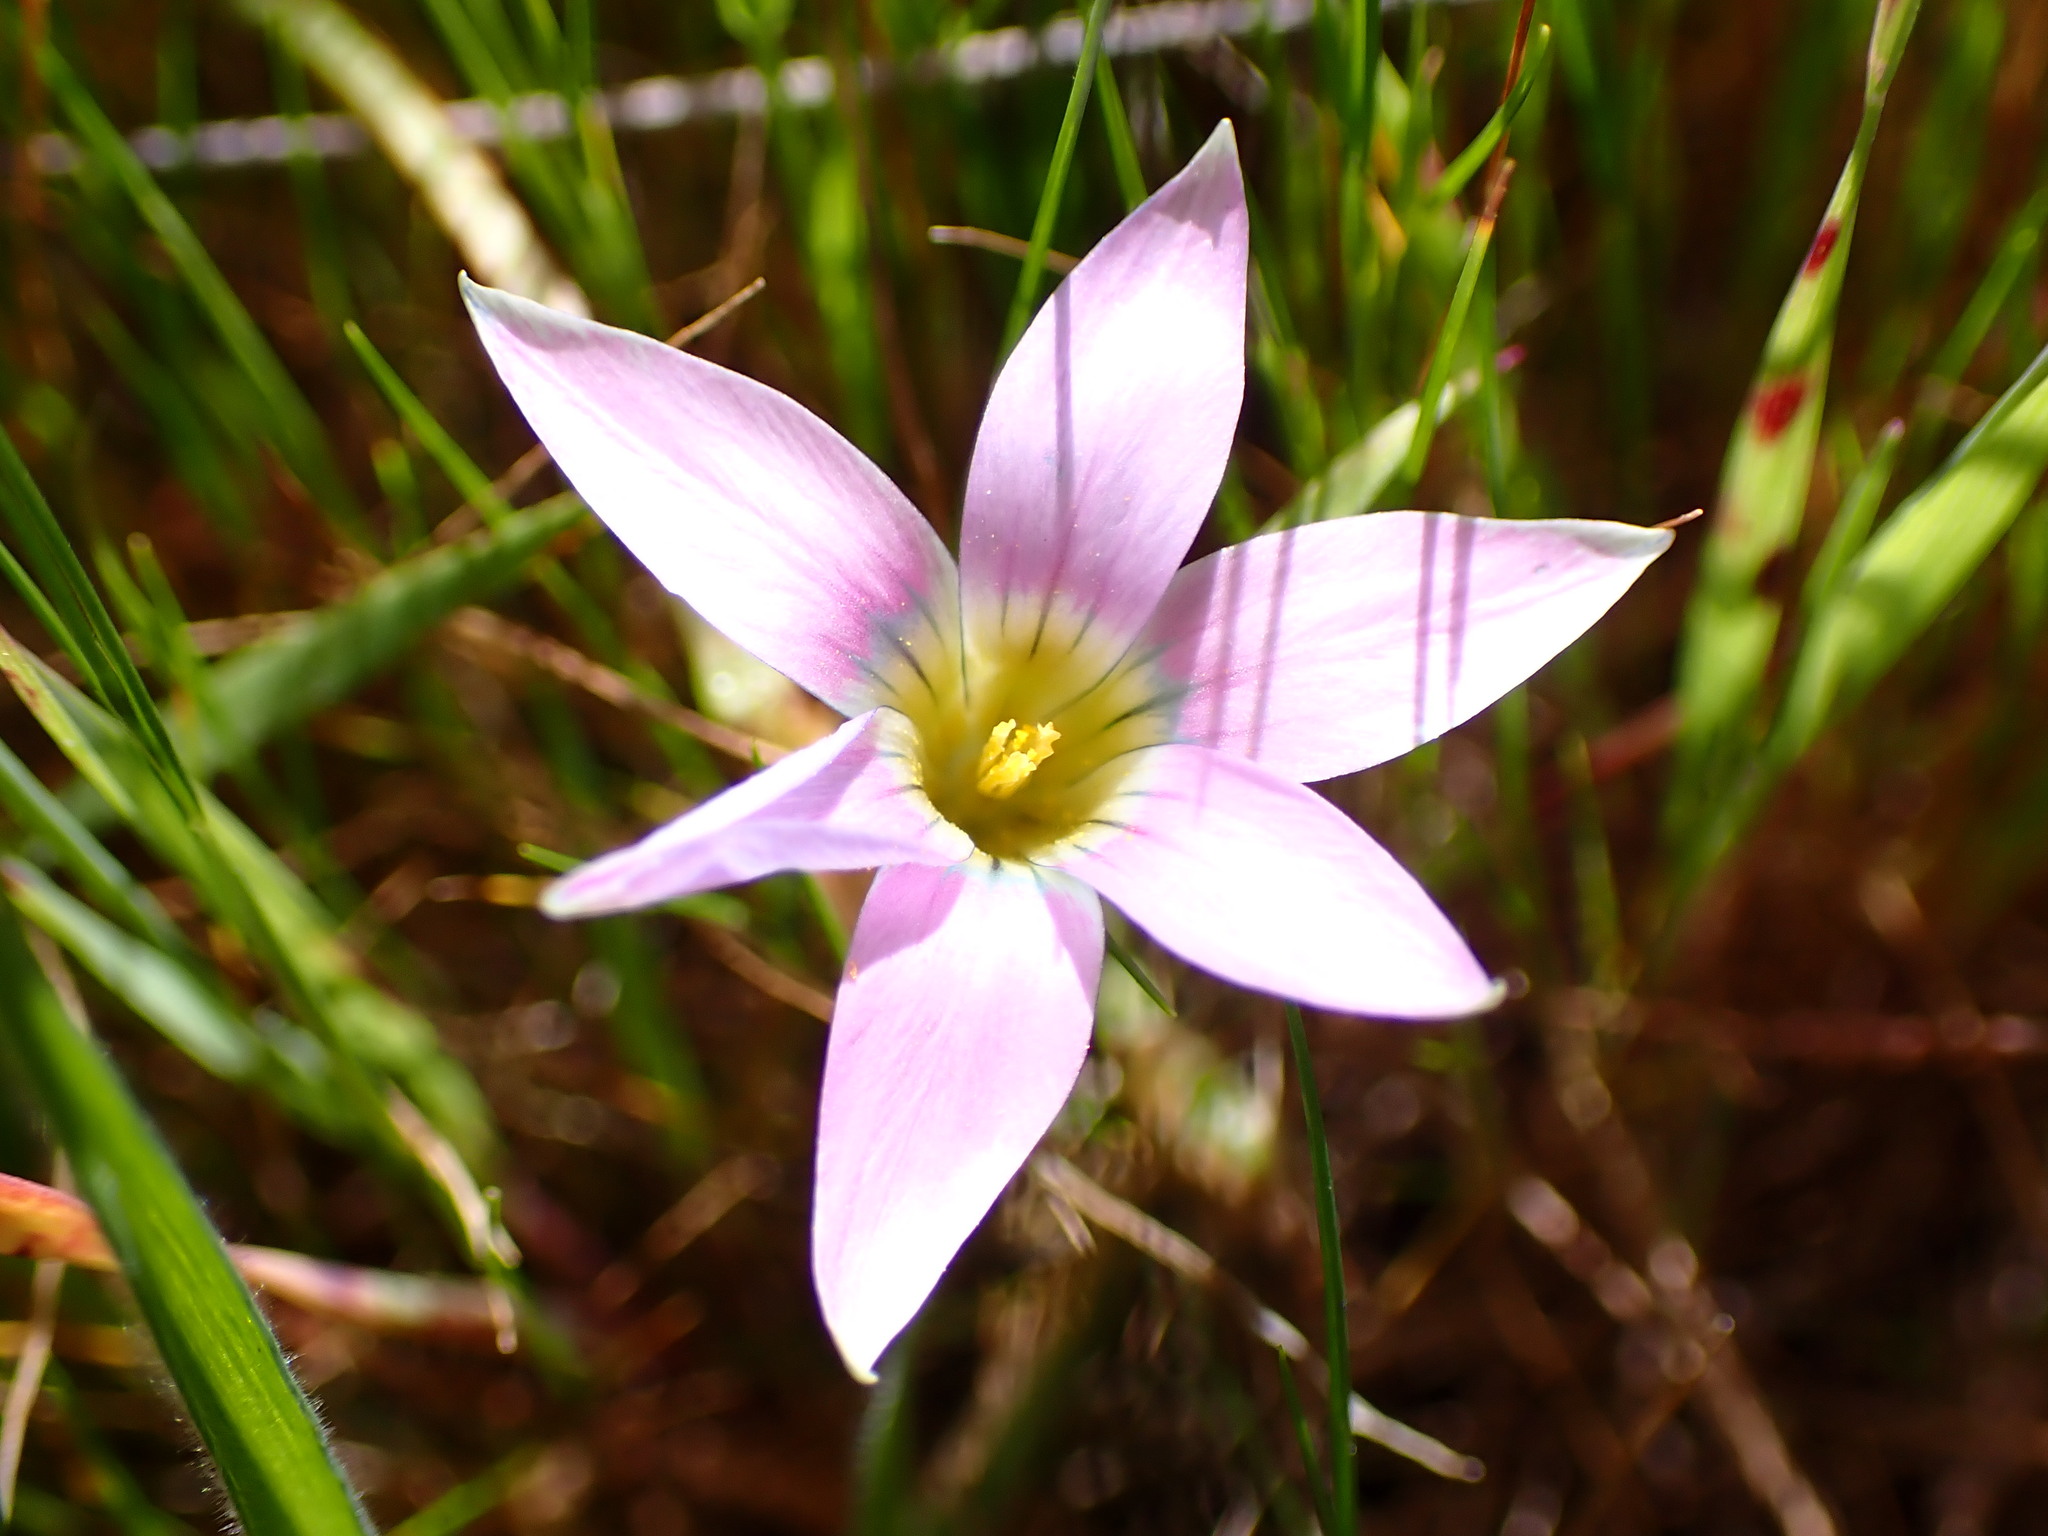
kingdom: Plantae
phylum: Tracheophyta
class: Liliopsida
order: Asparagales
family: Iridaceae
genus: Romulea
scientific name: Romulea rosea
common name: Oniongrass
